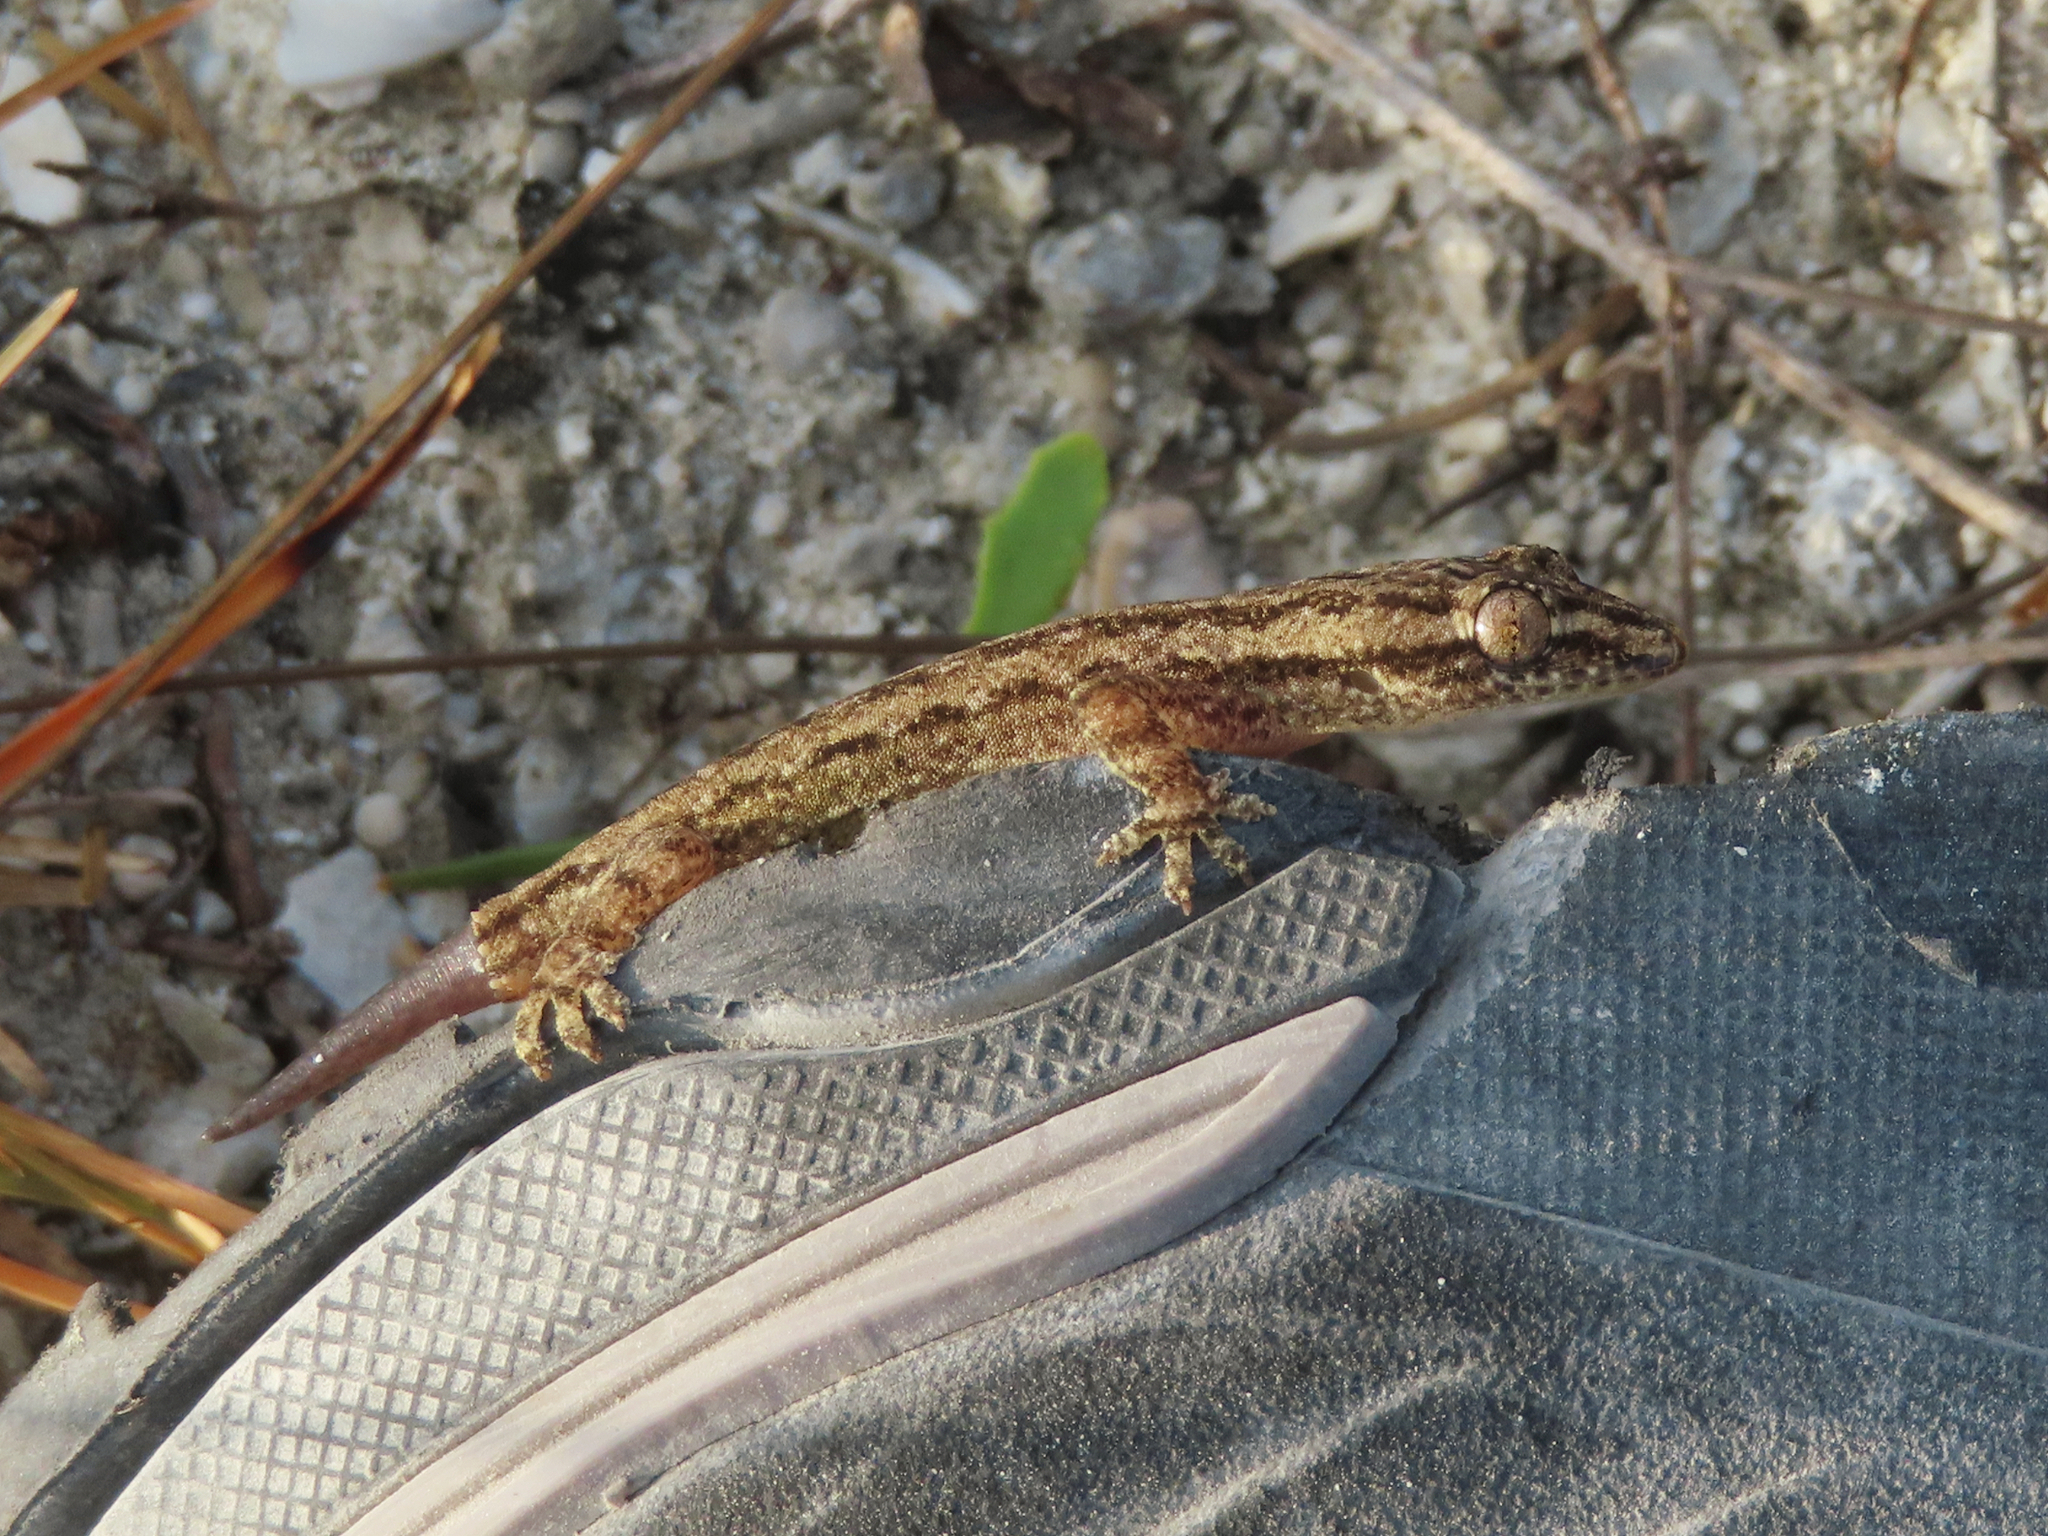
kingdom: Animalia
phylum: Chordata
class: Squamata
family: Gekkonidae
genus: Hemidactylus
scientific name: Hemidactylus frenatus
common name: Common house gecko
